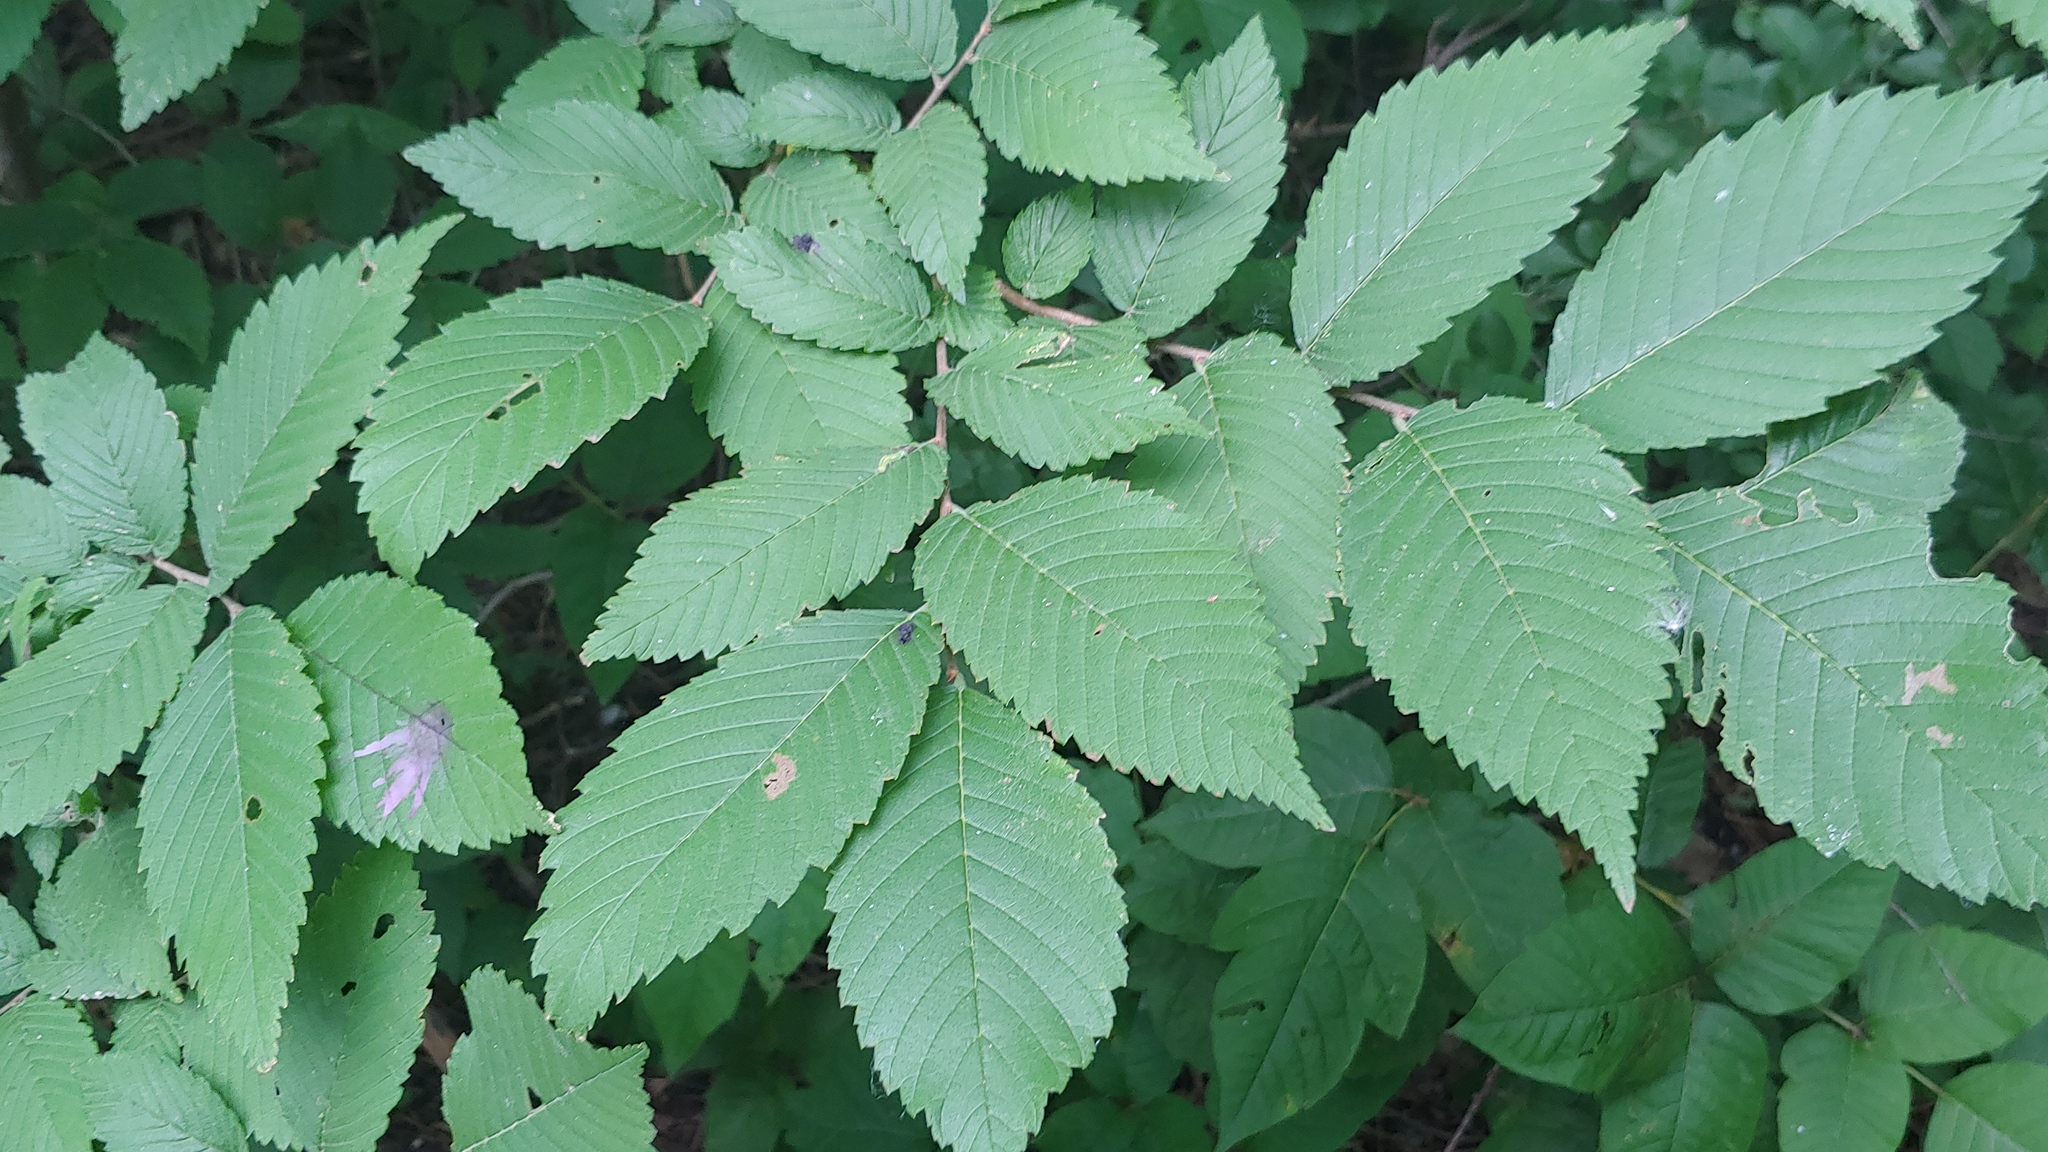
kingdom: Plantae
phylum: Tracheophyta
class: Magnoliopsida
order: Rosales
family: Ulmaceae
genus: Ulmus
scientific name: Ulmus americana
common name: American elm
